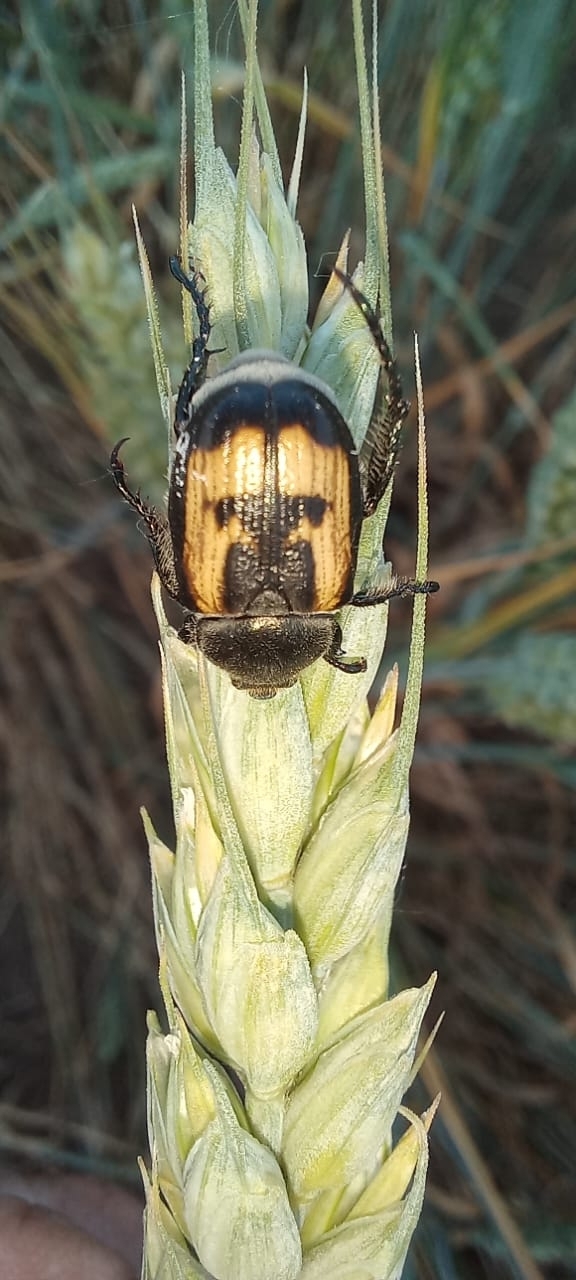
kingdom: Animalia
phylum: Arthropoda
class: Insecta
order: Coleoptera
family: Scarabaeidae
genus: Anisoplia
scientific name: Anisoplia agricola
